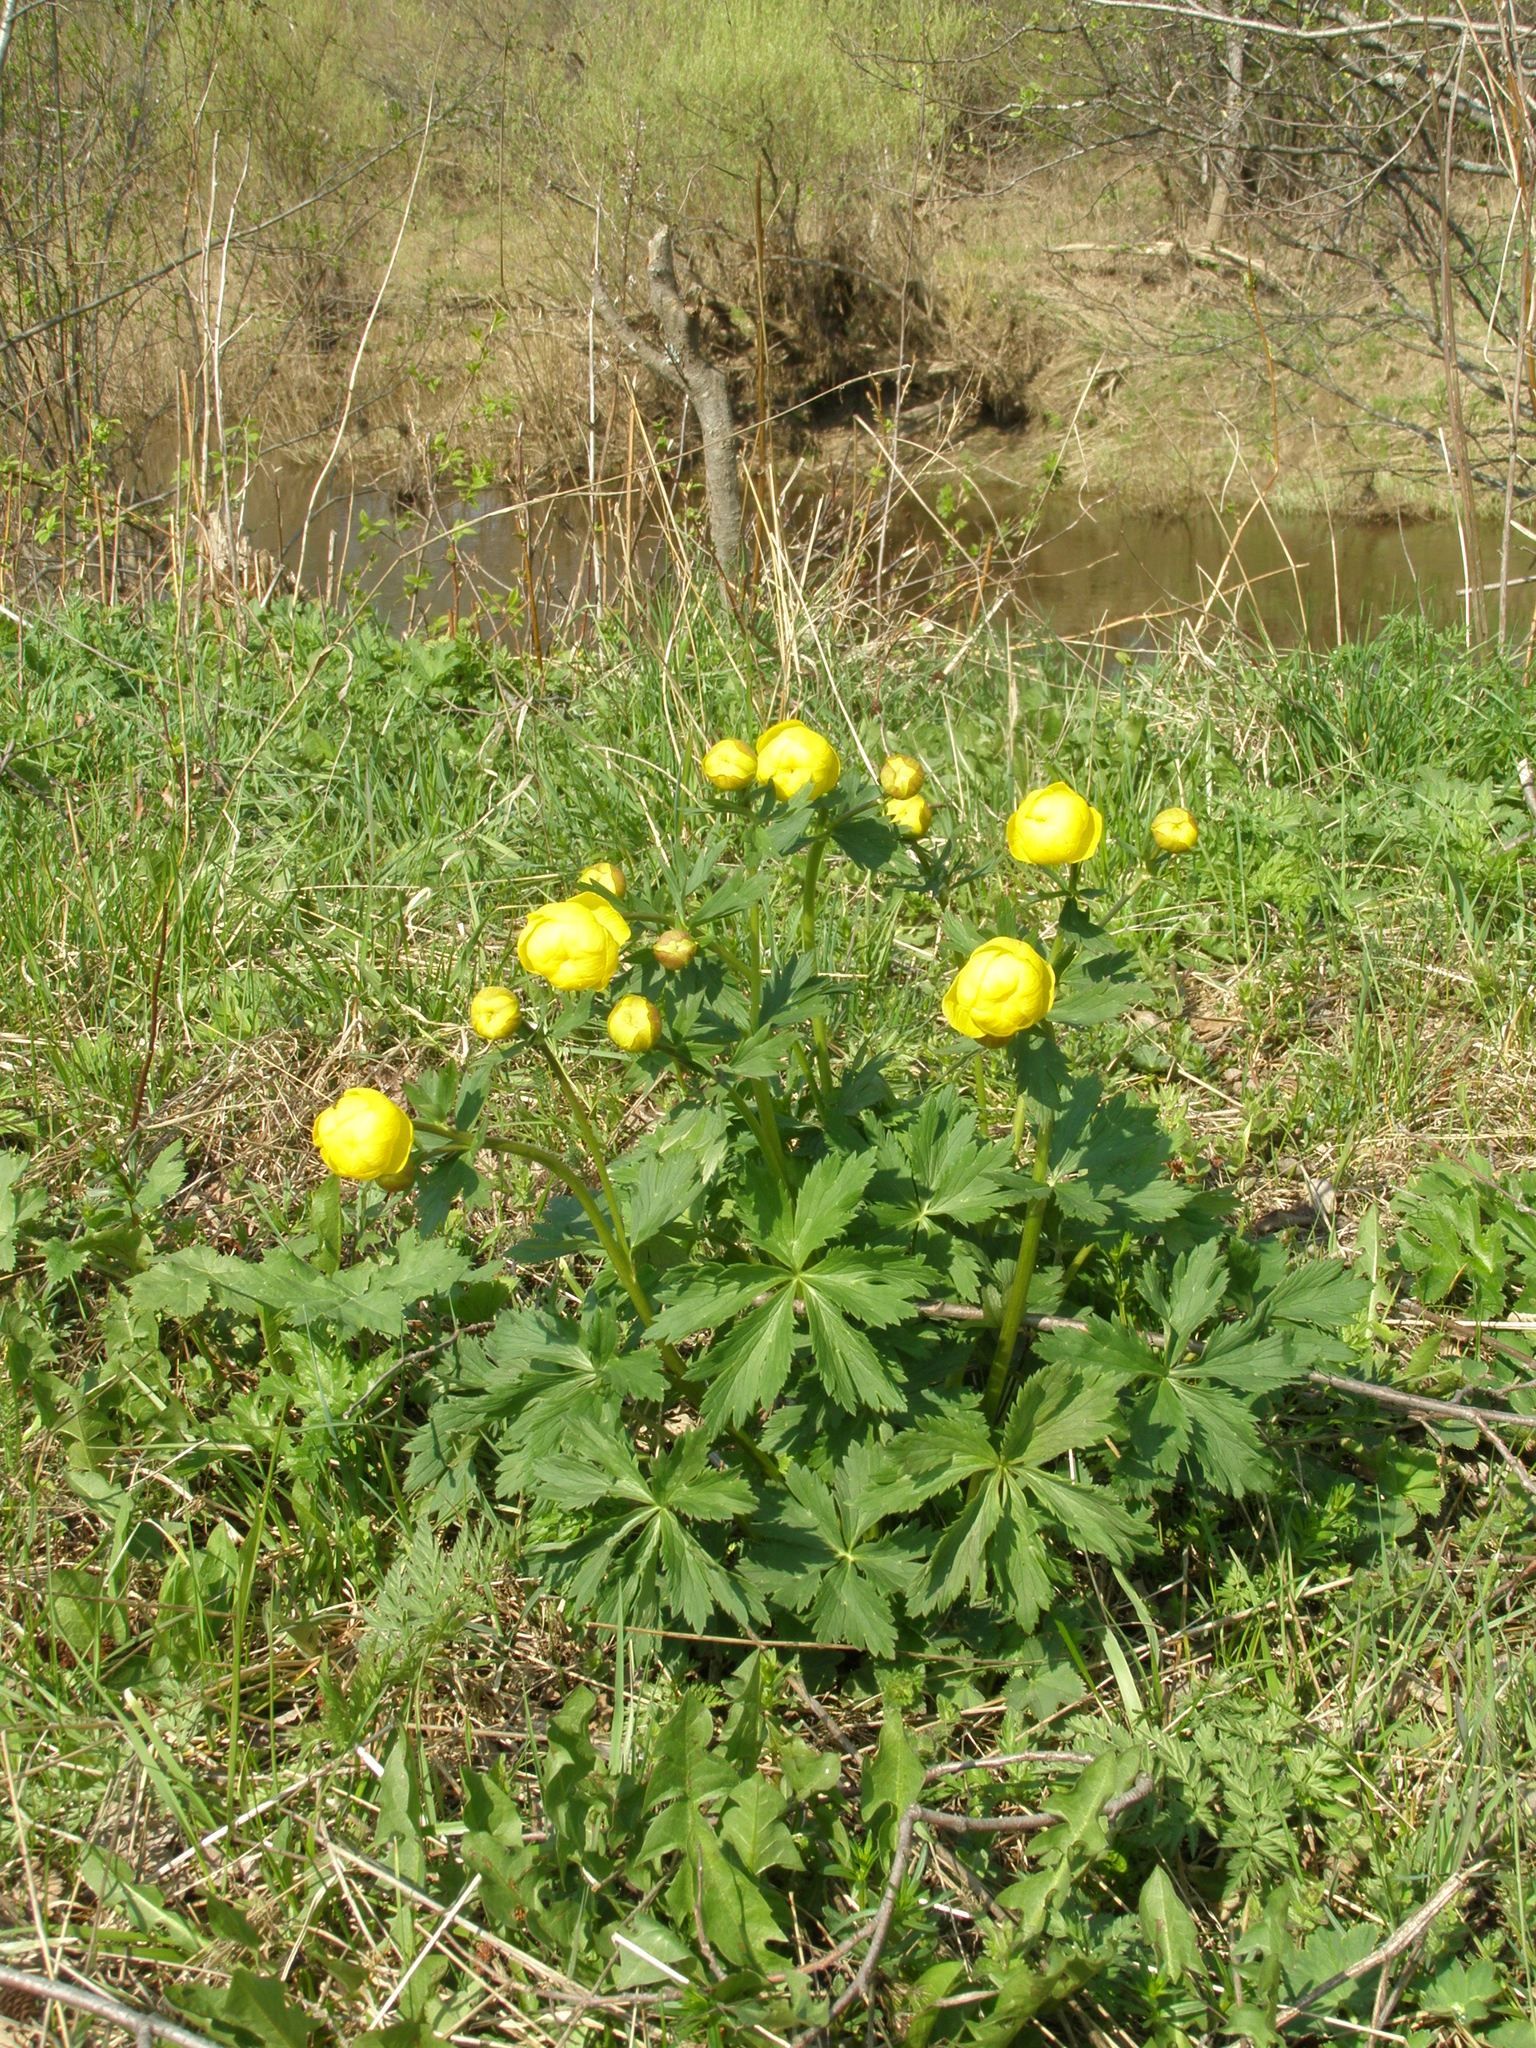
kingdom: Plantae
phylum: Tracheophyta
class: Magnoliopsida
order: Ranunculales
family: Ranunculaceae
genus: Trollius
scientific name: Trollius europaeus
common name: European globeflower
